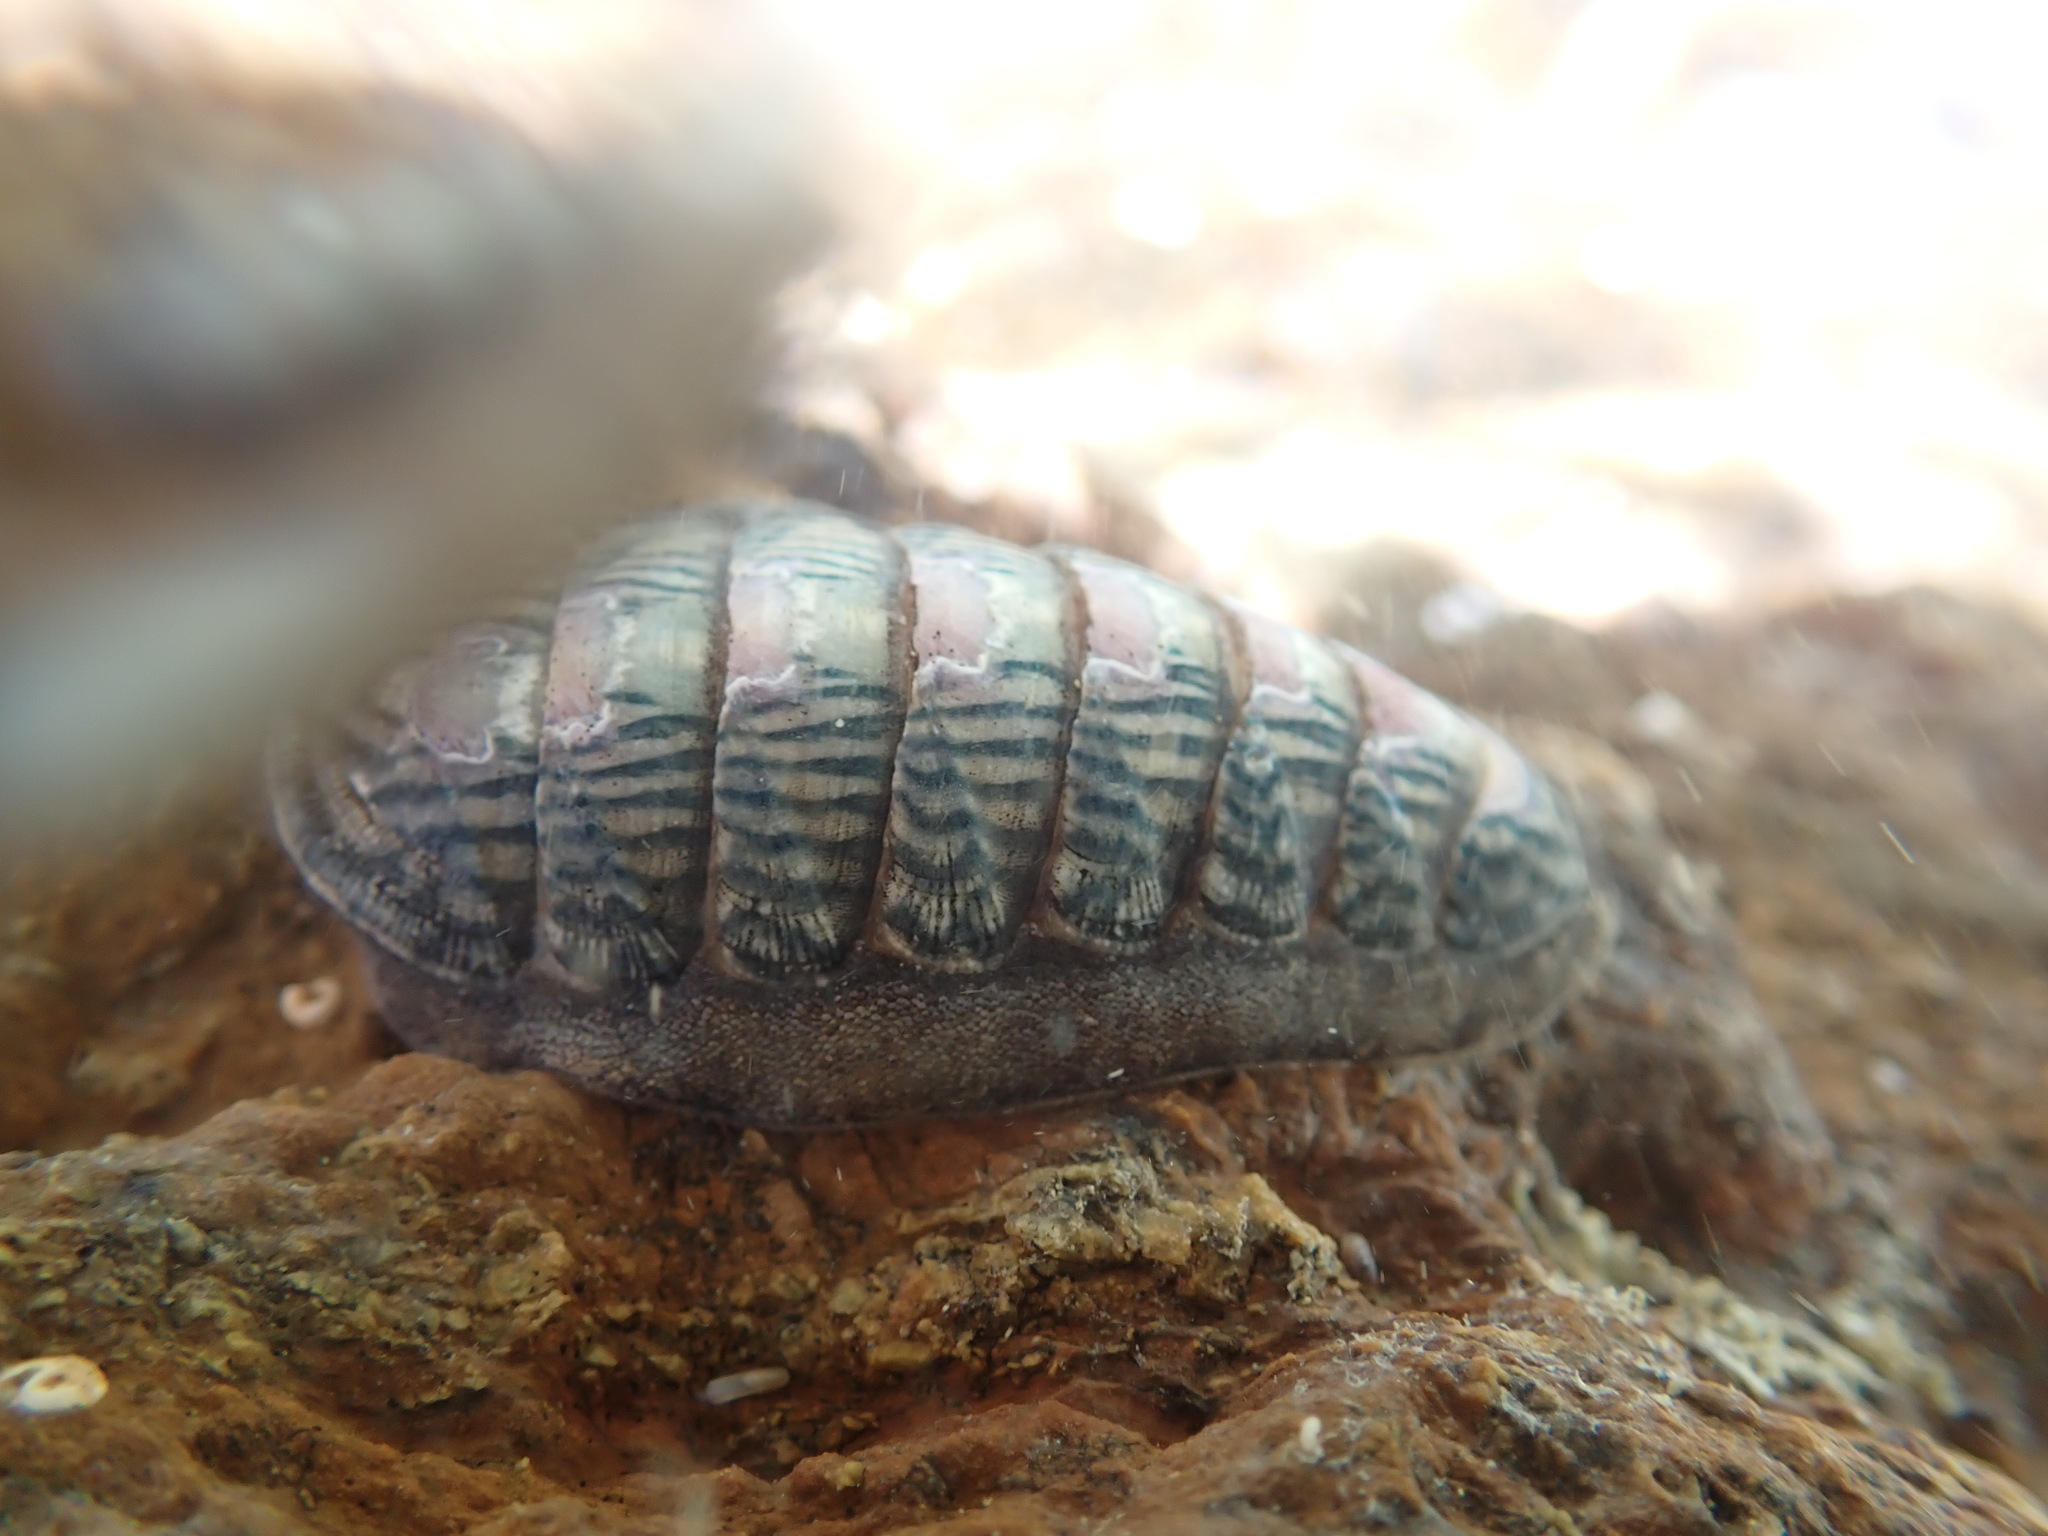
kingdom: Animalia
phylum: Mollusca
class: Polyplacophora
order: Chitonida
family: Ischnochitonidae
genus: Ischnochiton
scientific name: Ischnochiton maorianus
